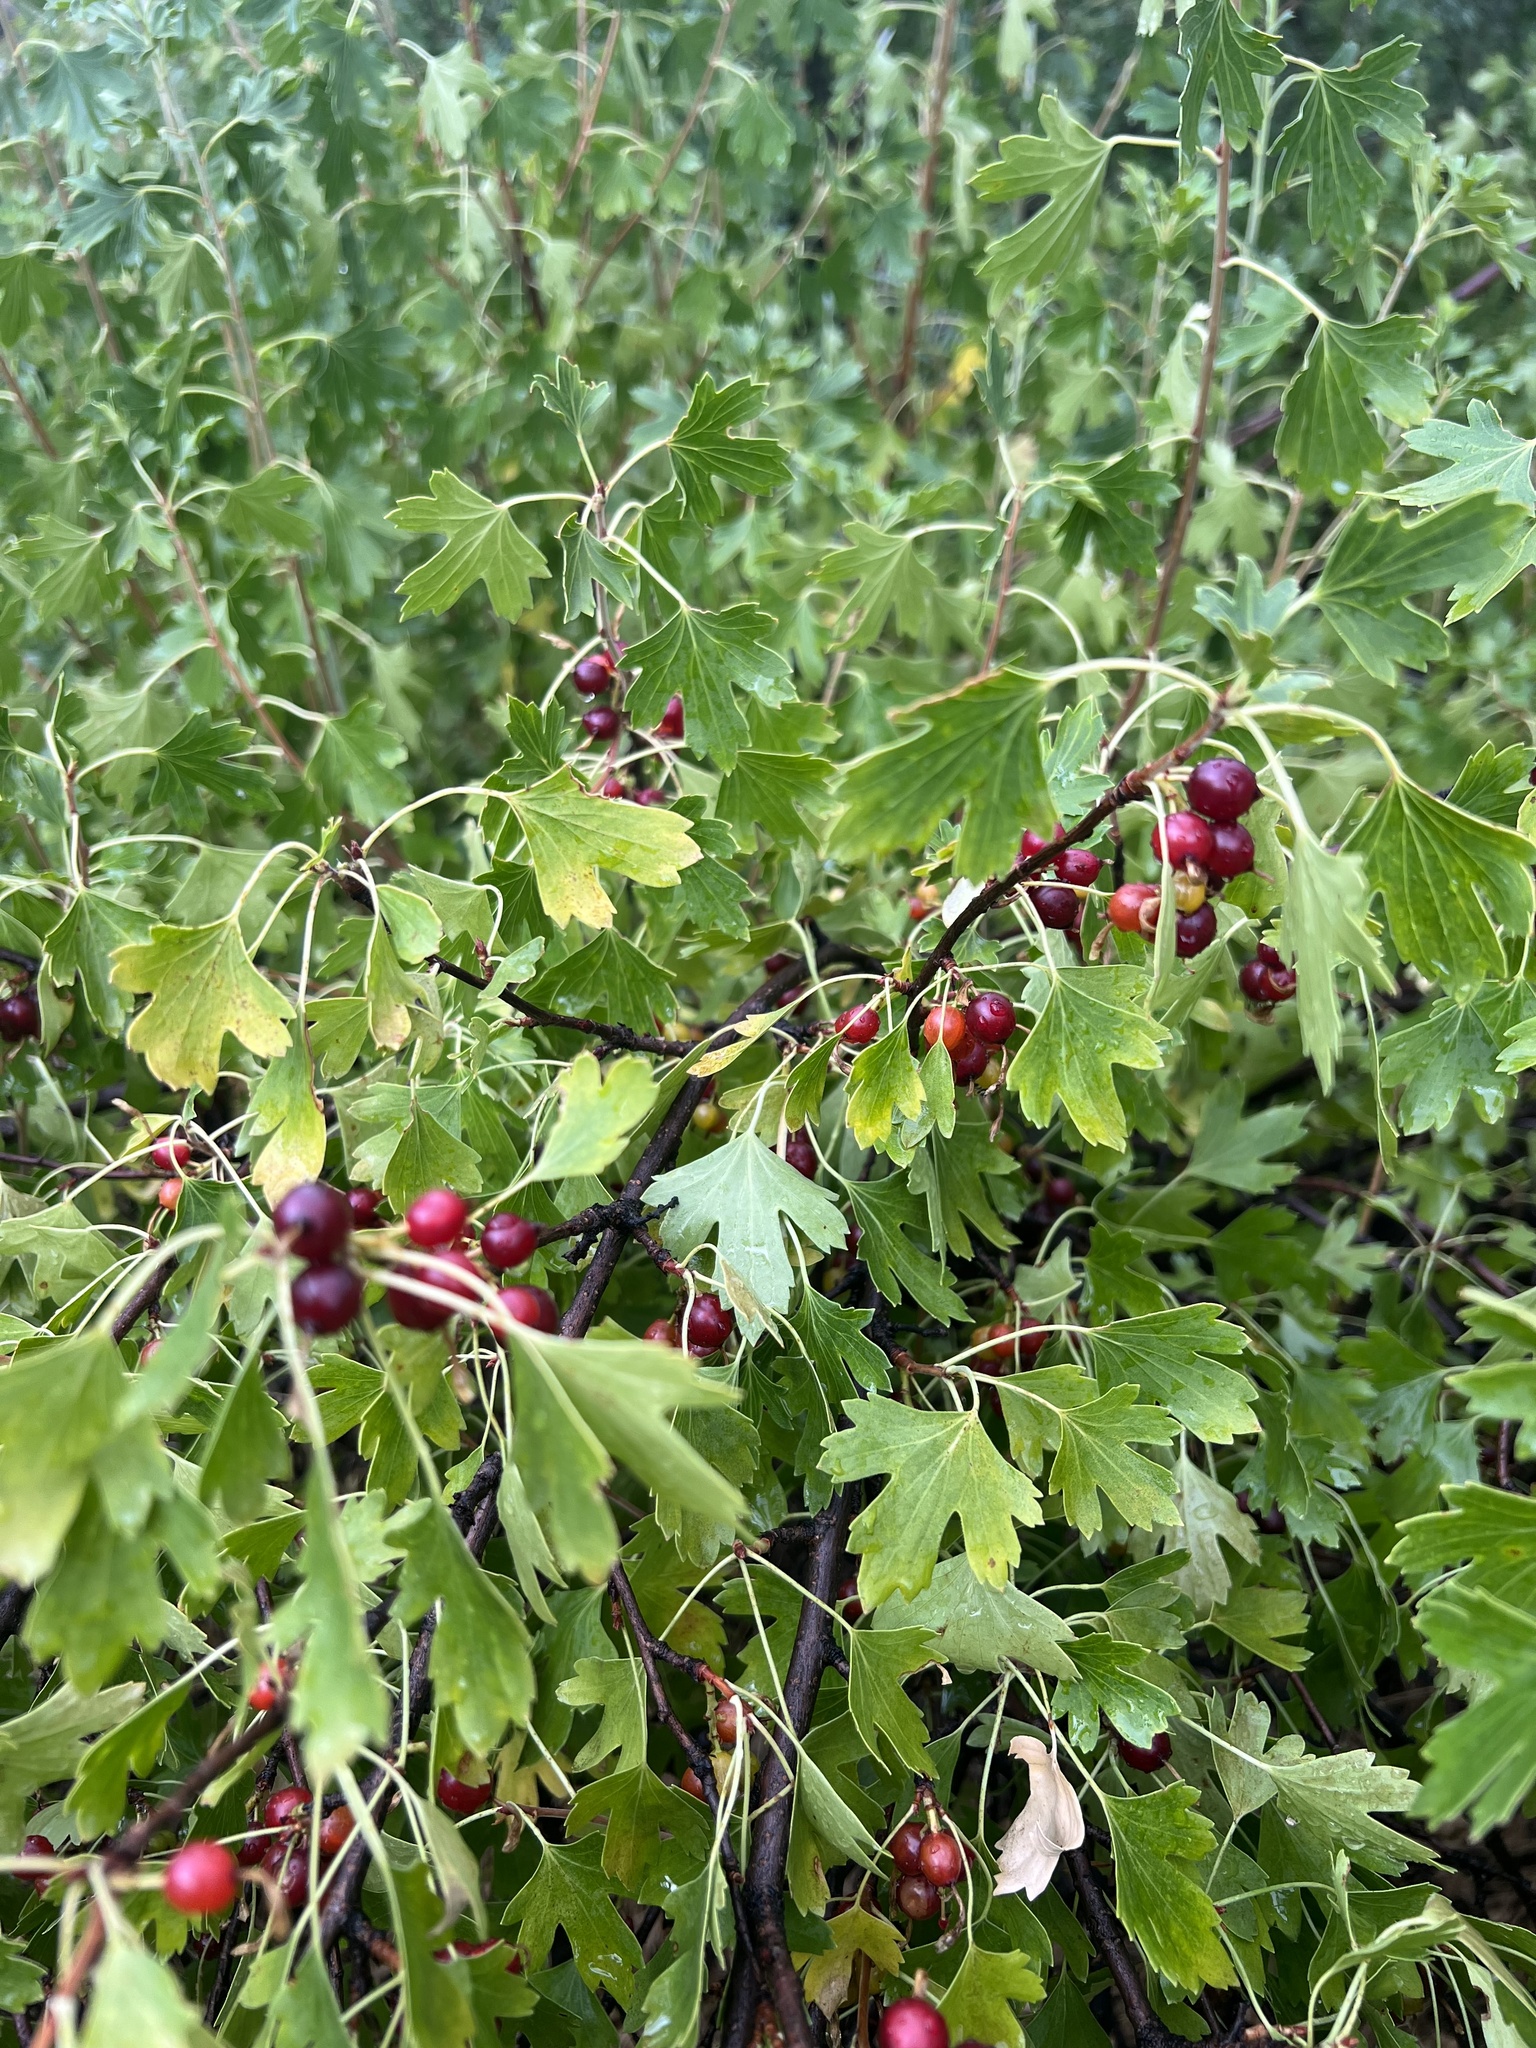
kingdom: Plantae
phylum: Tracheophyta
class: Magnoliopsida
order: Saxifragales
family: Grossulariaceae
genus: Ribes
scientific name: Ribes aureum
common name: Golden currant
